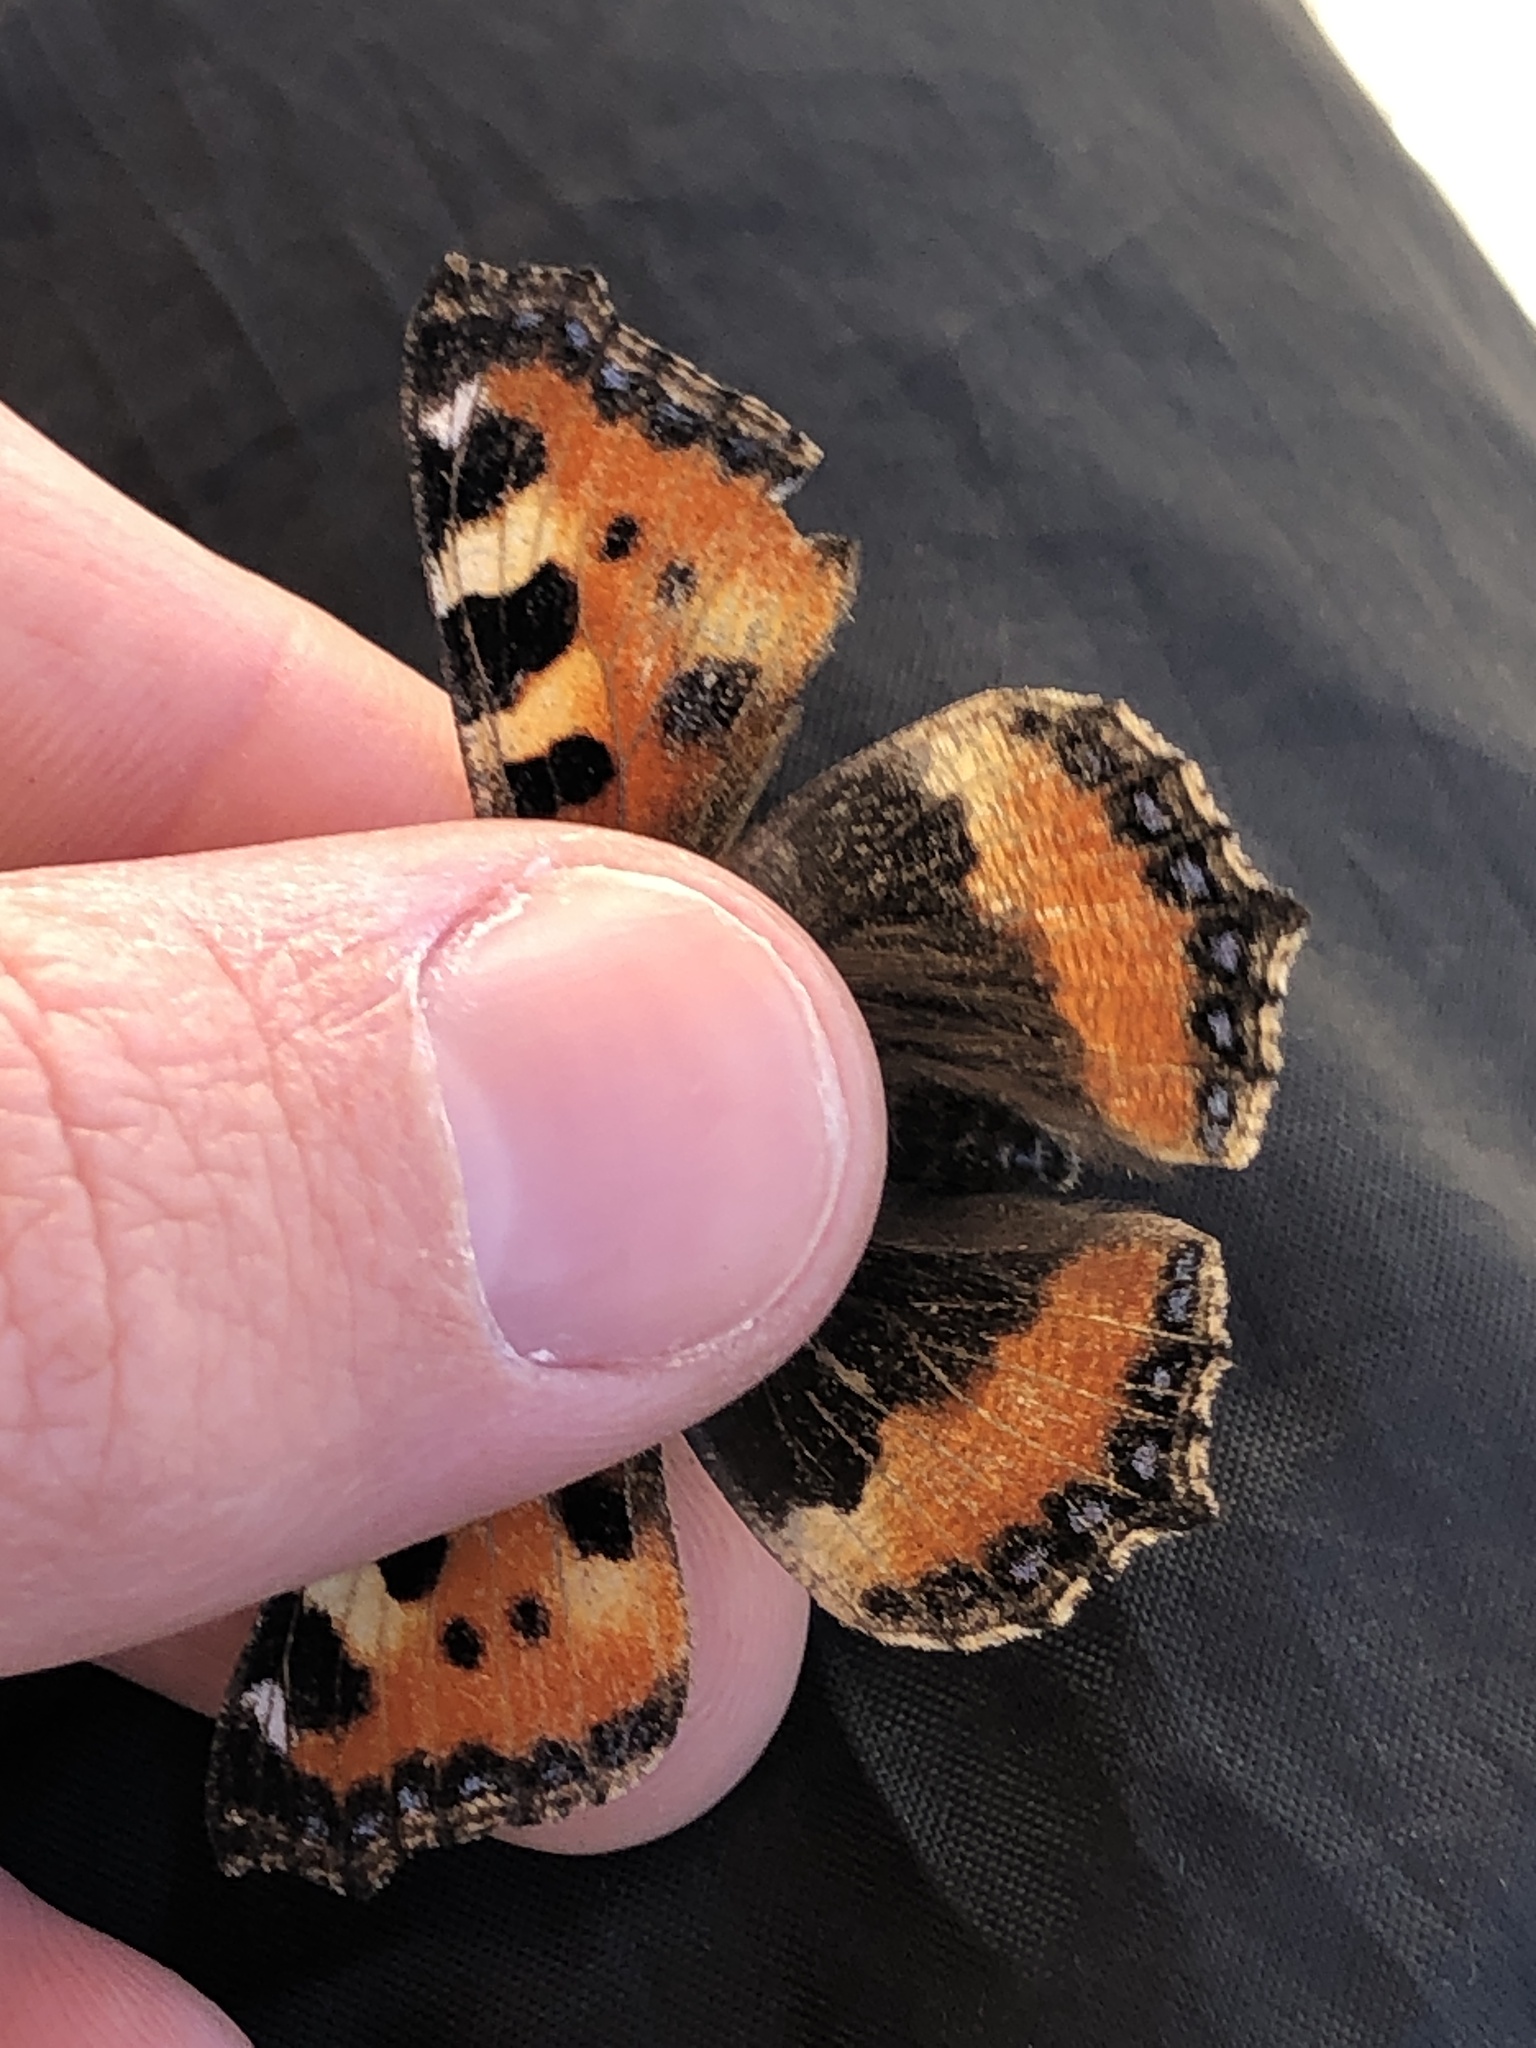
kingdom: Animalia
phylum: Arthropoda
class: Insecta
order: Lepidoptera
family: Nymphalidae
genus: Aglais
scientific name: Aglais urticae
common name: Small tortoiseshell
